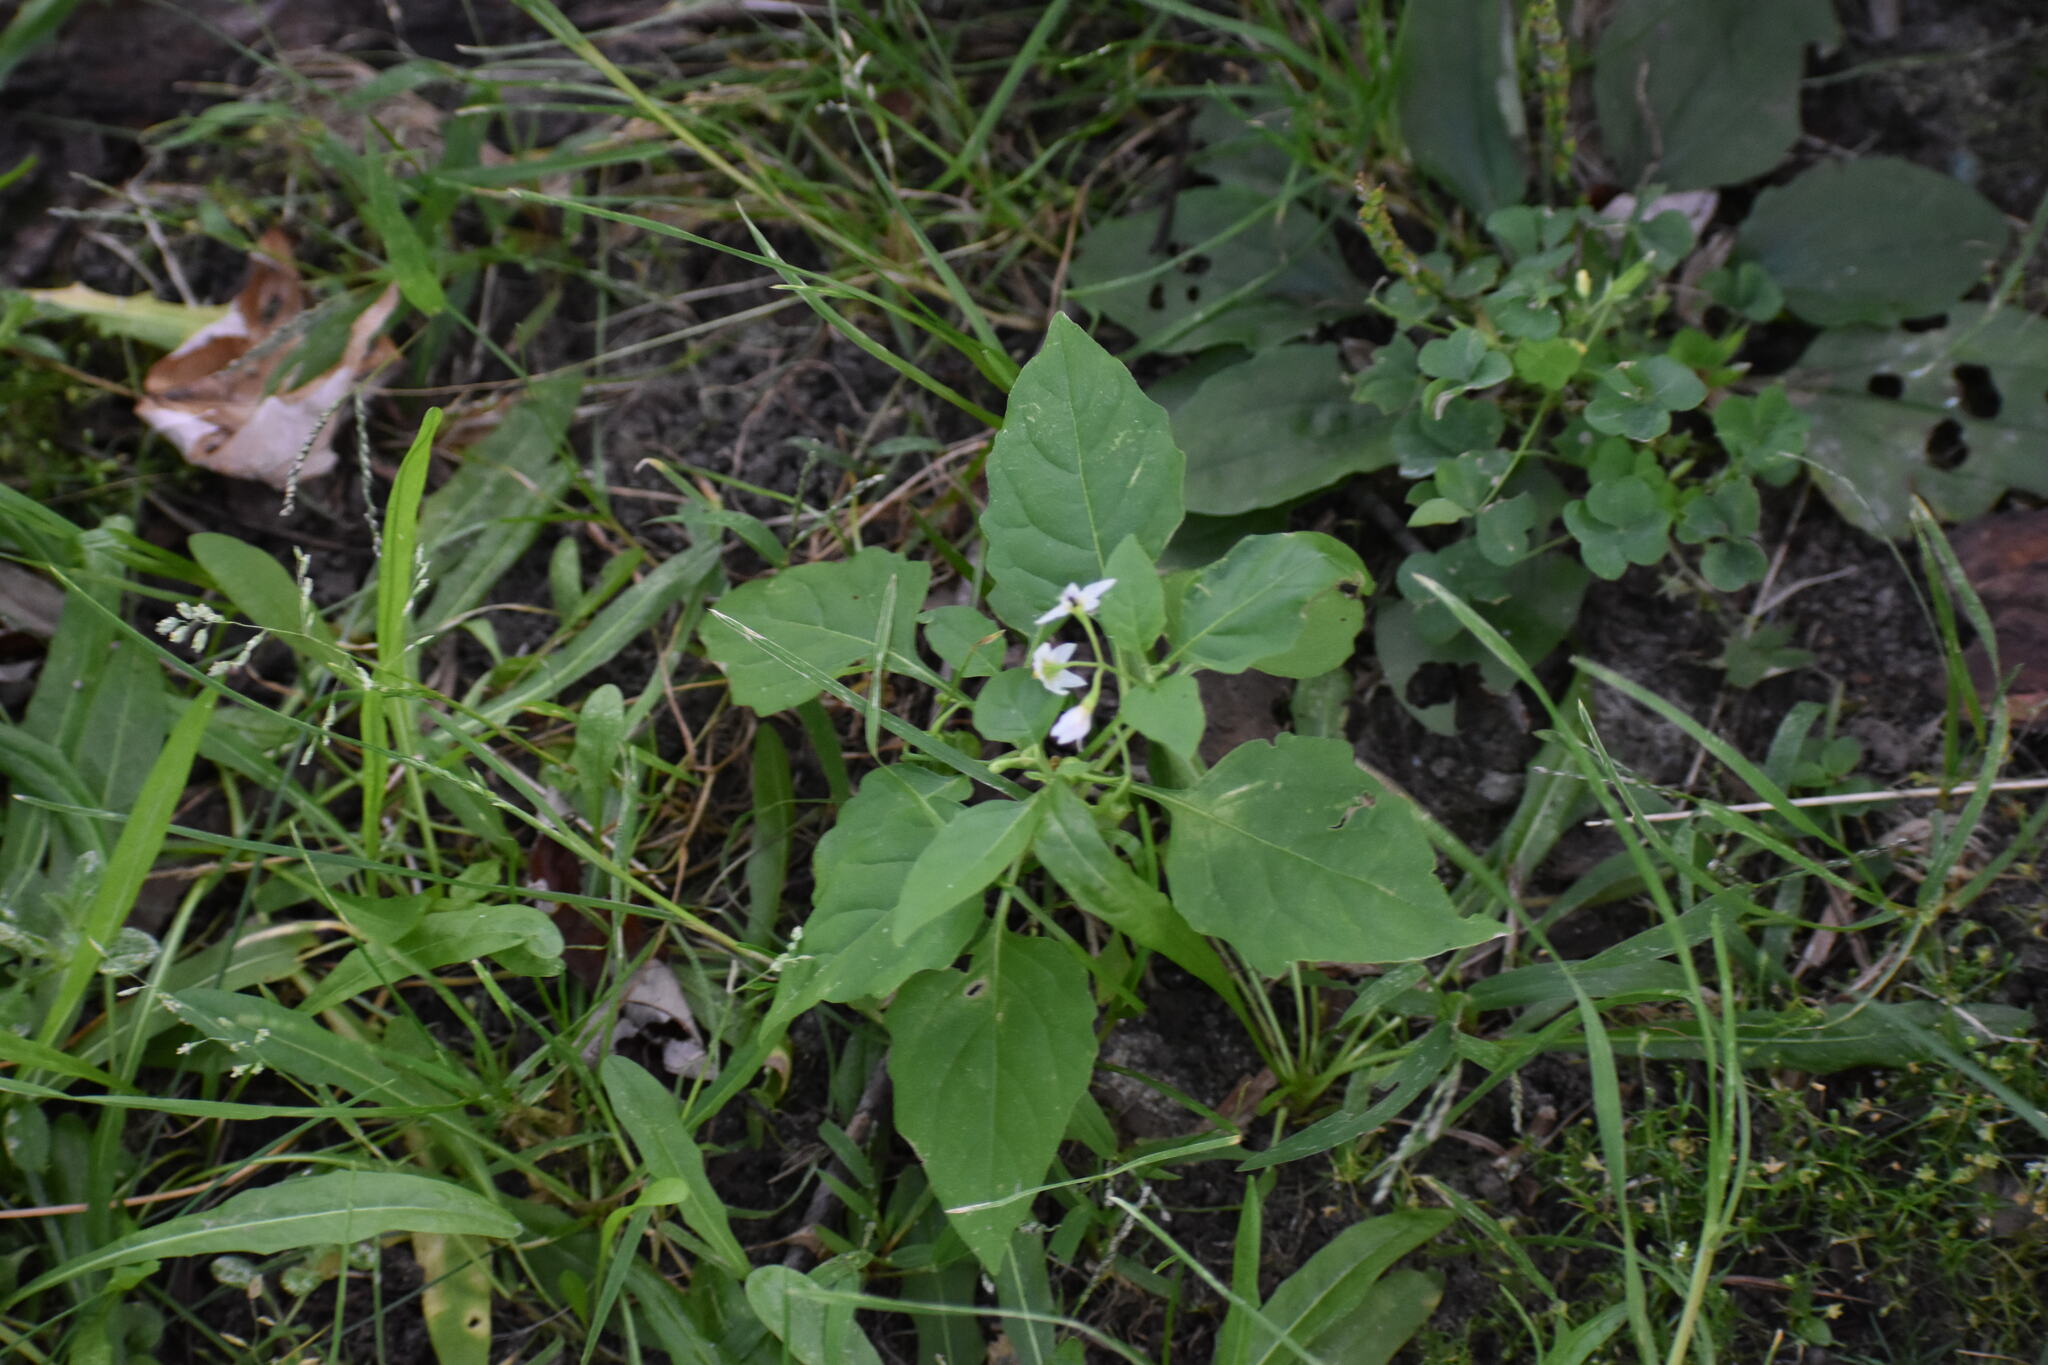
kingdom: Plantae
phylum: Tracheophyta
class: Magnoliopsida
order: Solanales
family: Solanaceae
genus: Solanum
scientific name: Solanum emulans
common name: Eastern black nightshade
